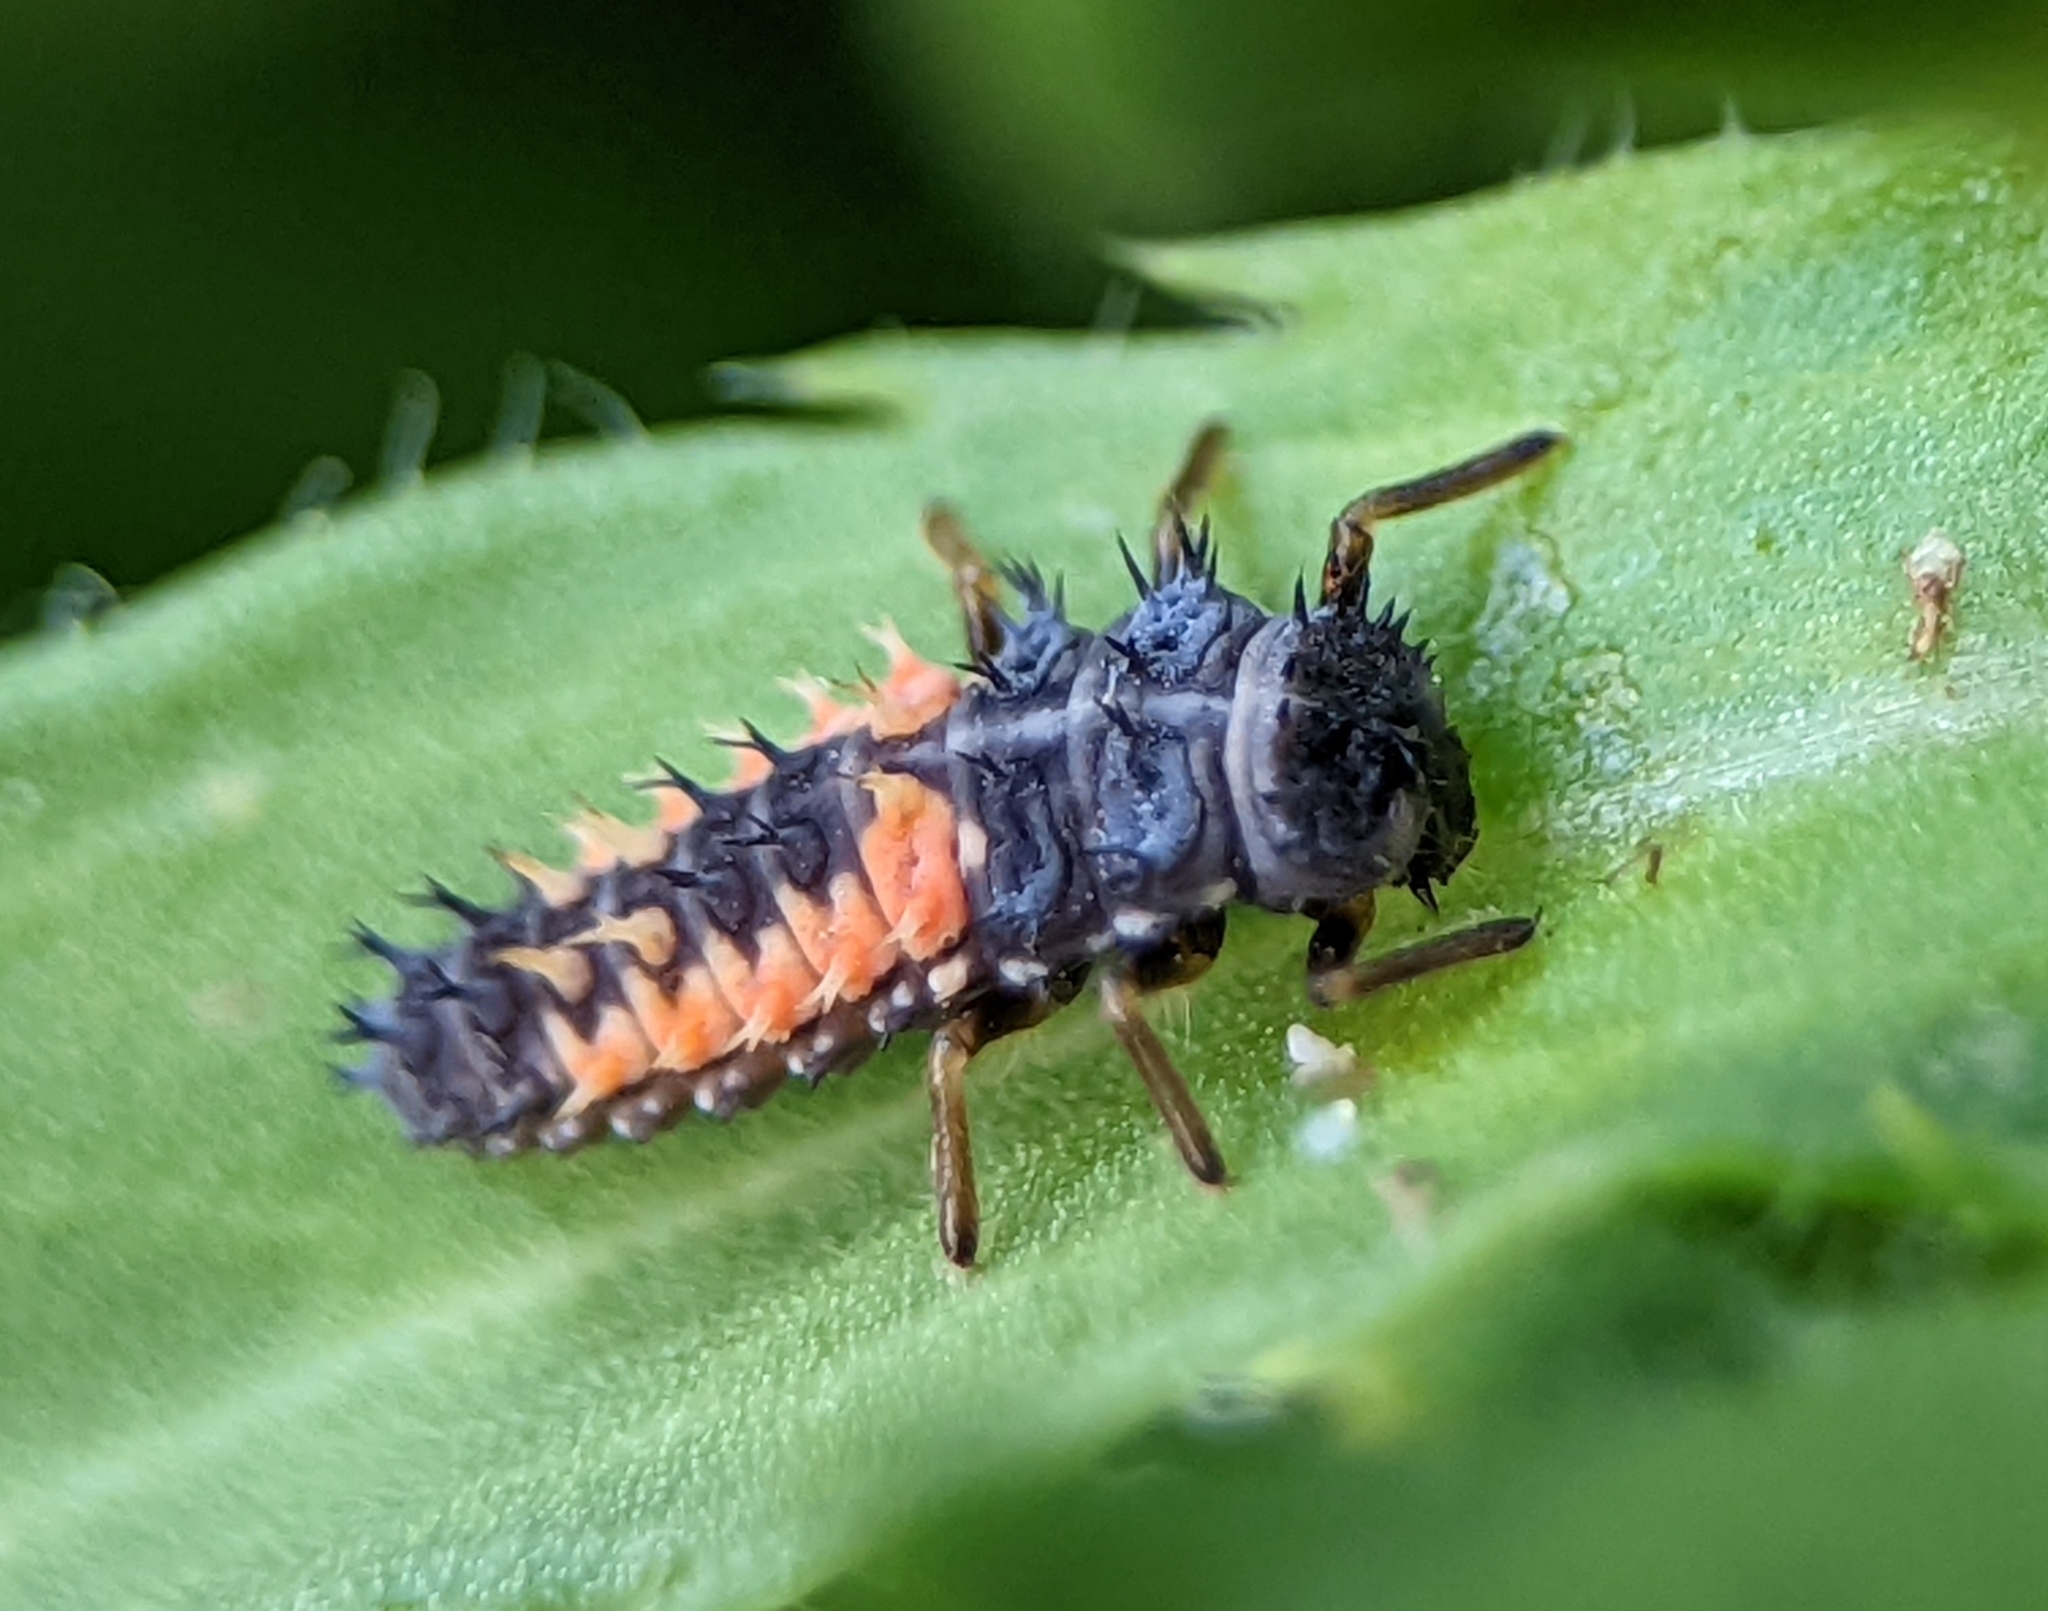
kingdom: Animalia
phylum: Arthropoda
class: Insecta
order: Coleoptera
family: Coccinellidae
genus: Harmonia
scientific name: Harmonia axyridis
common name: Harlequin ladybird
